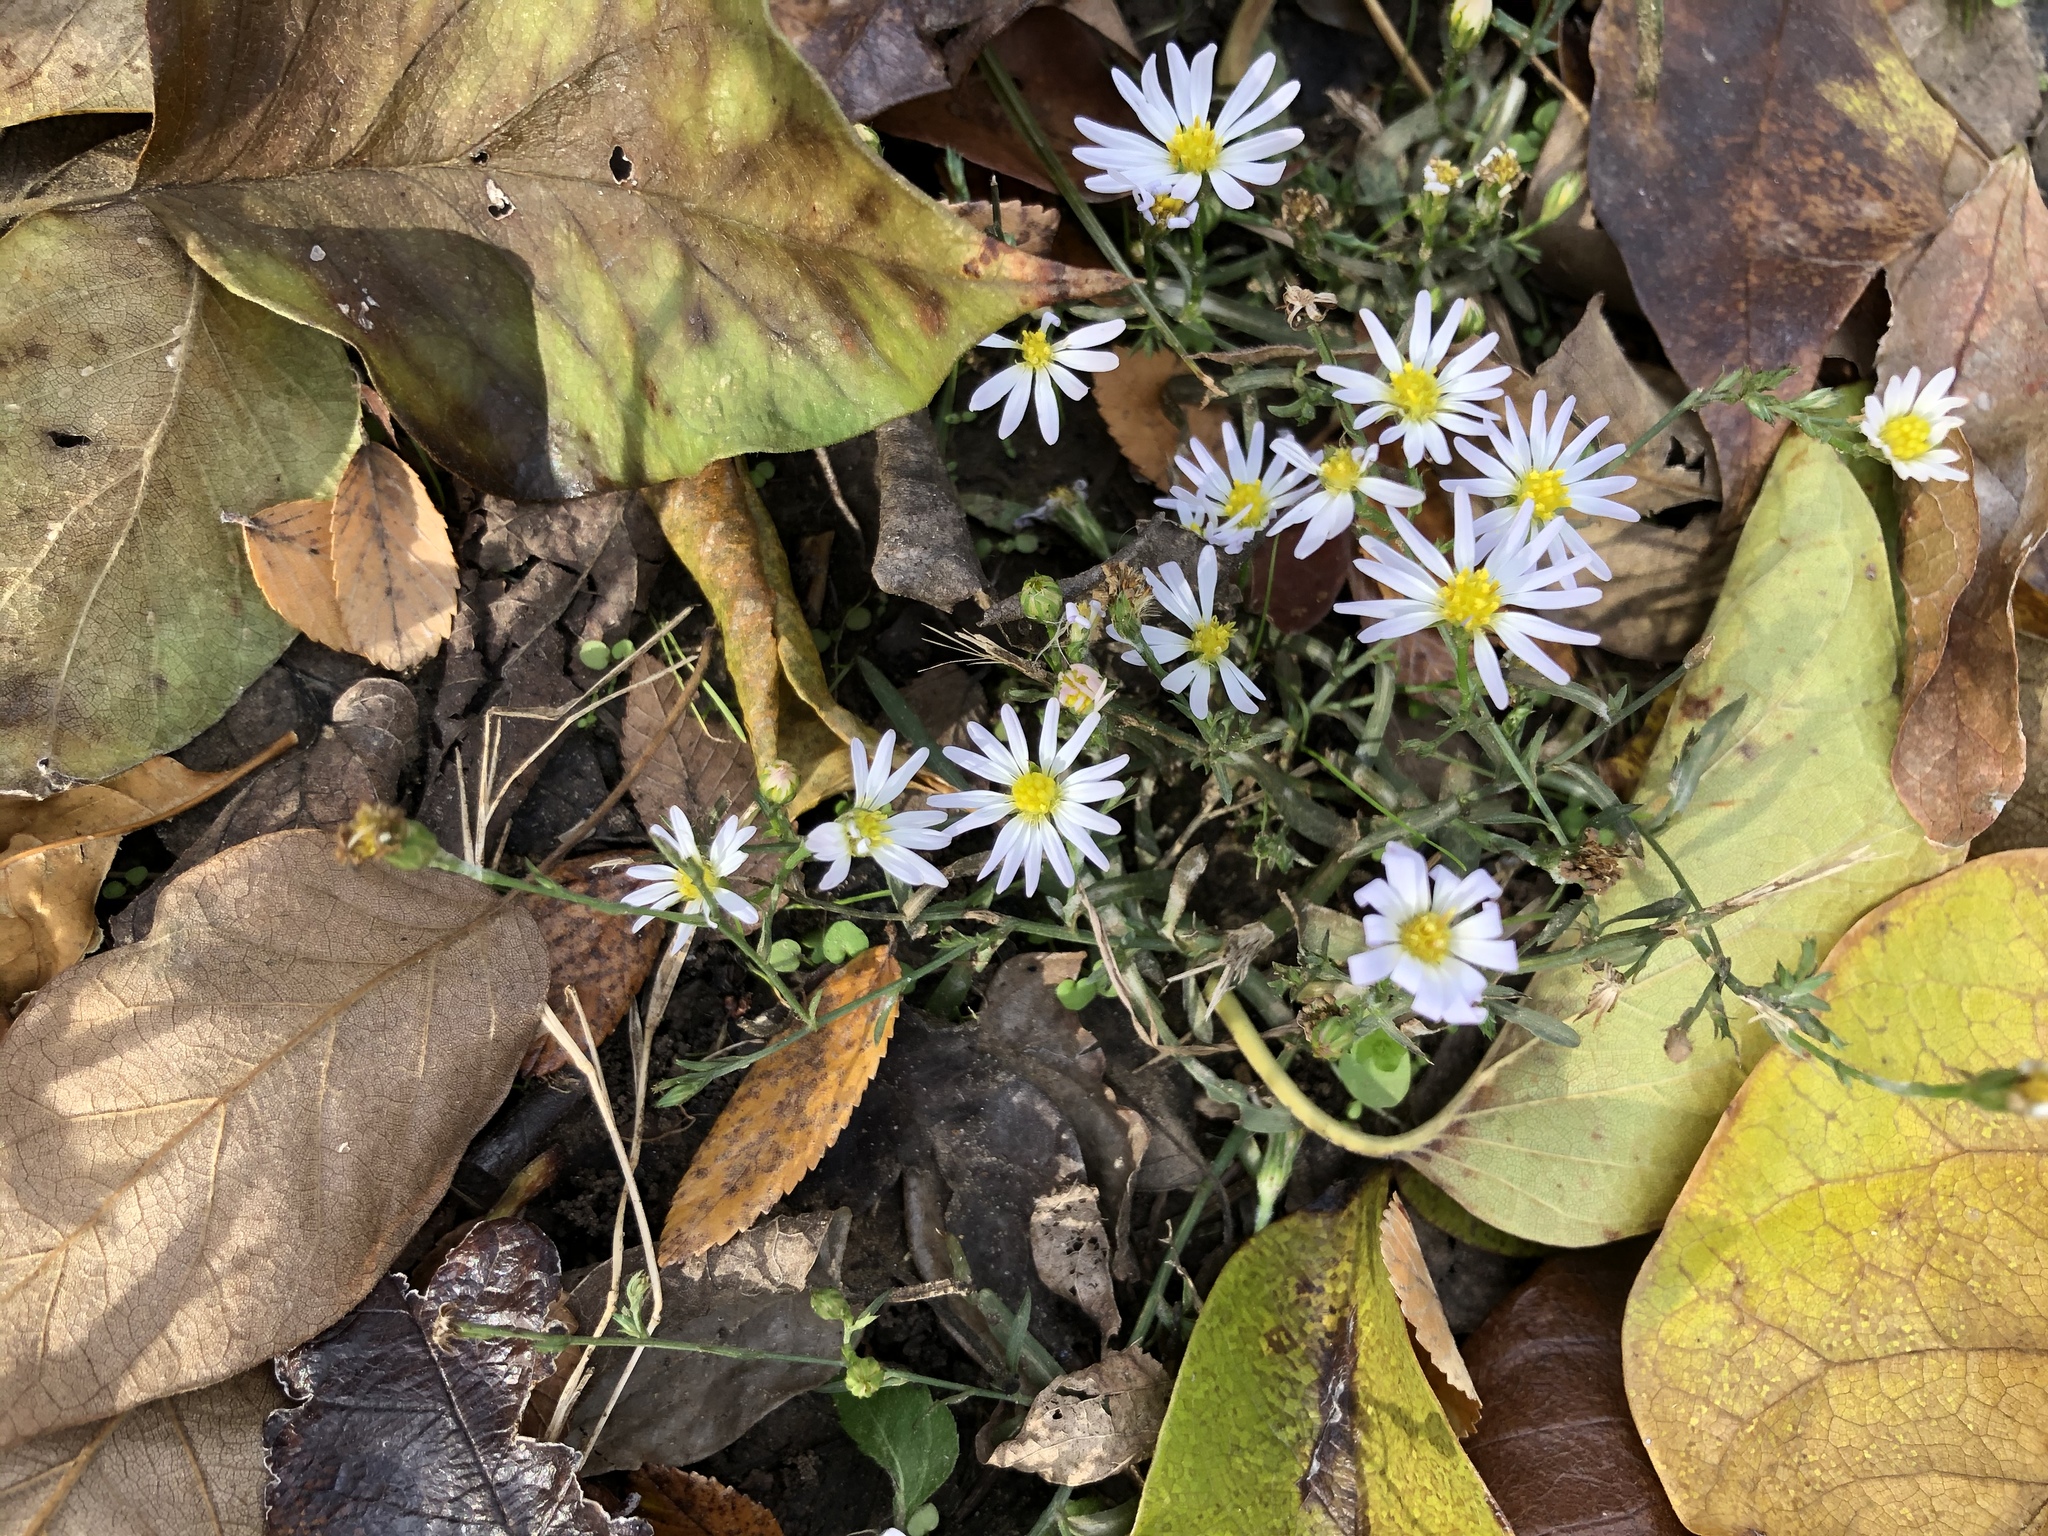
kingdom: Plantae
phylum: Tracheophyta
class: Magnoliopsida
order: Asterales
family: Asteraceae
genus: Symphyotrichum
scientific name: Symphyotrichum divaricatum
